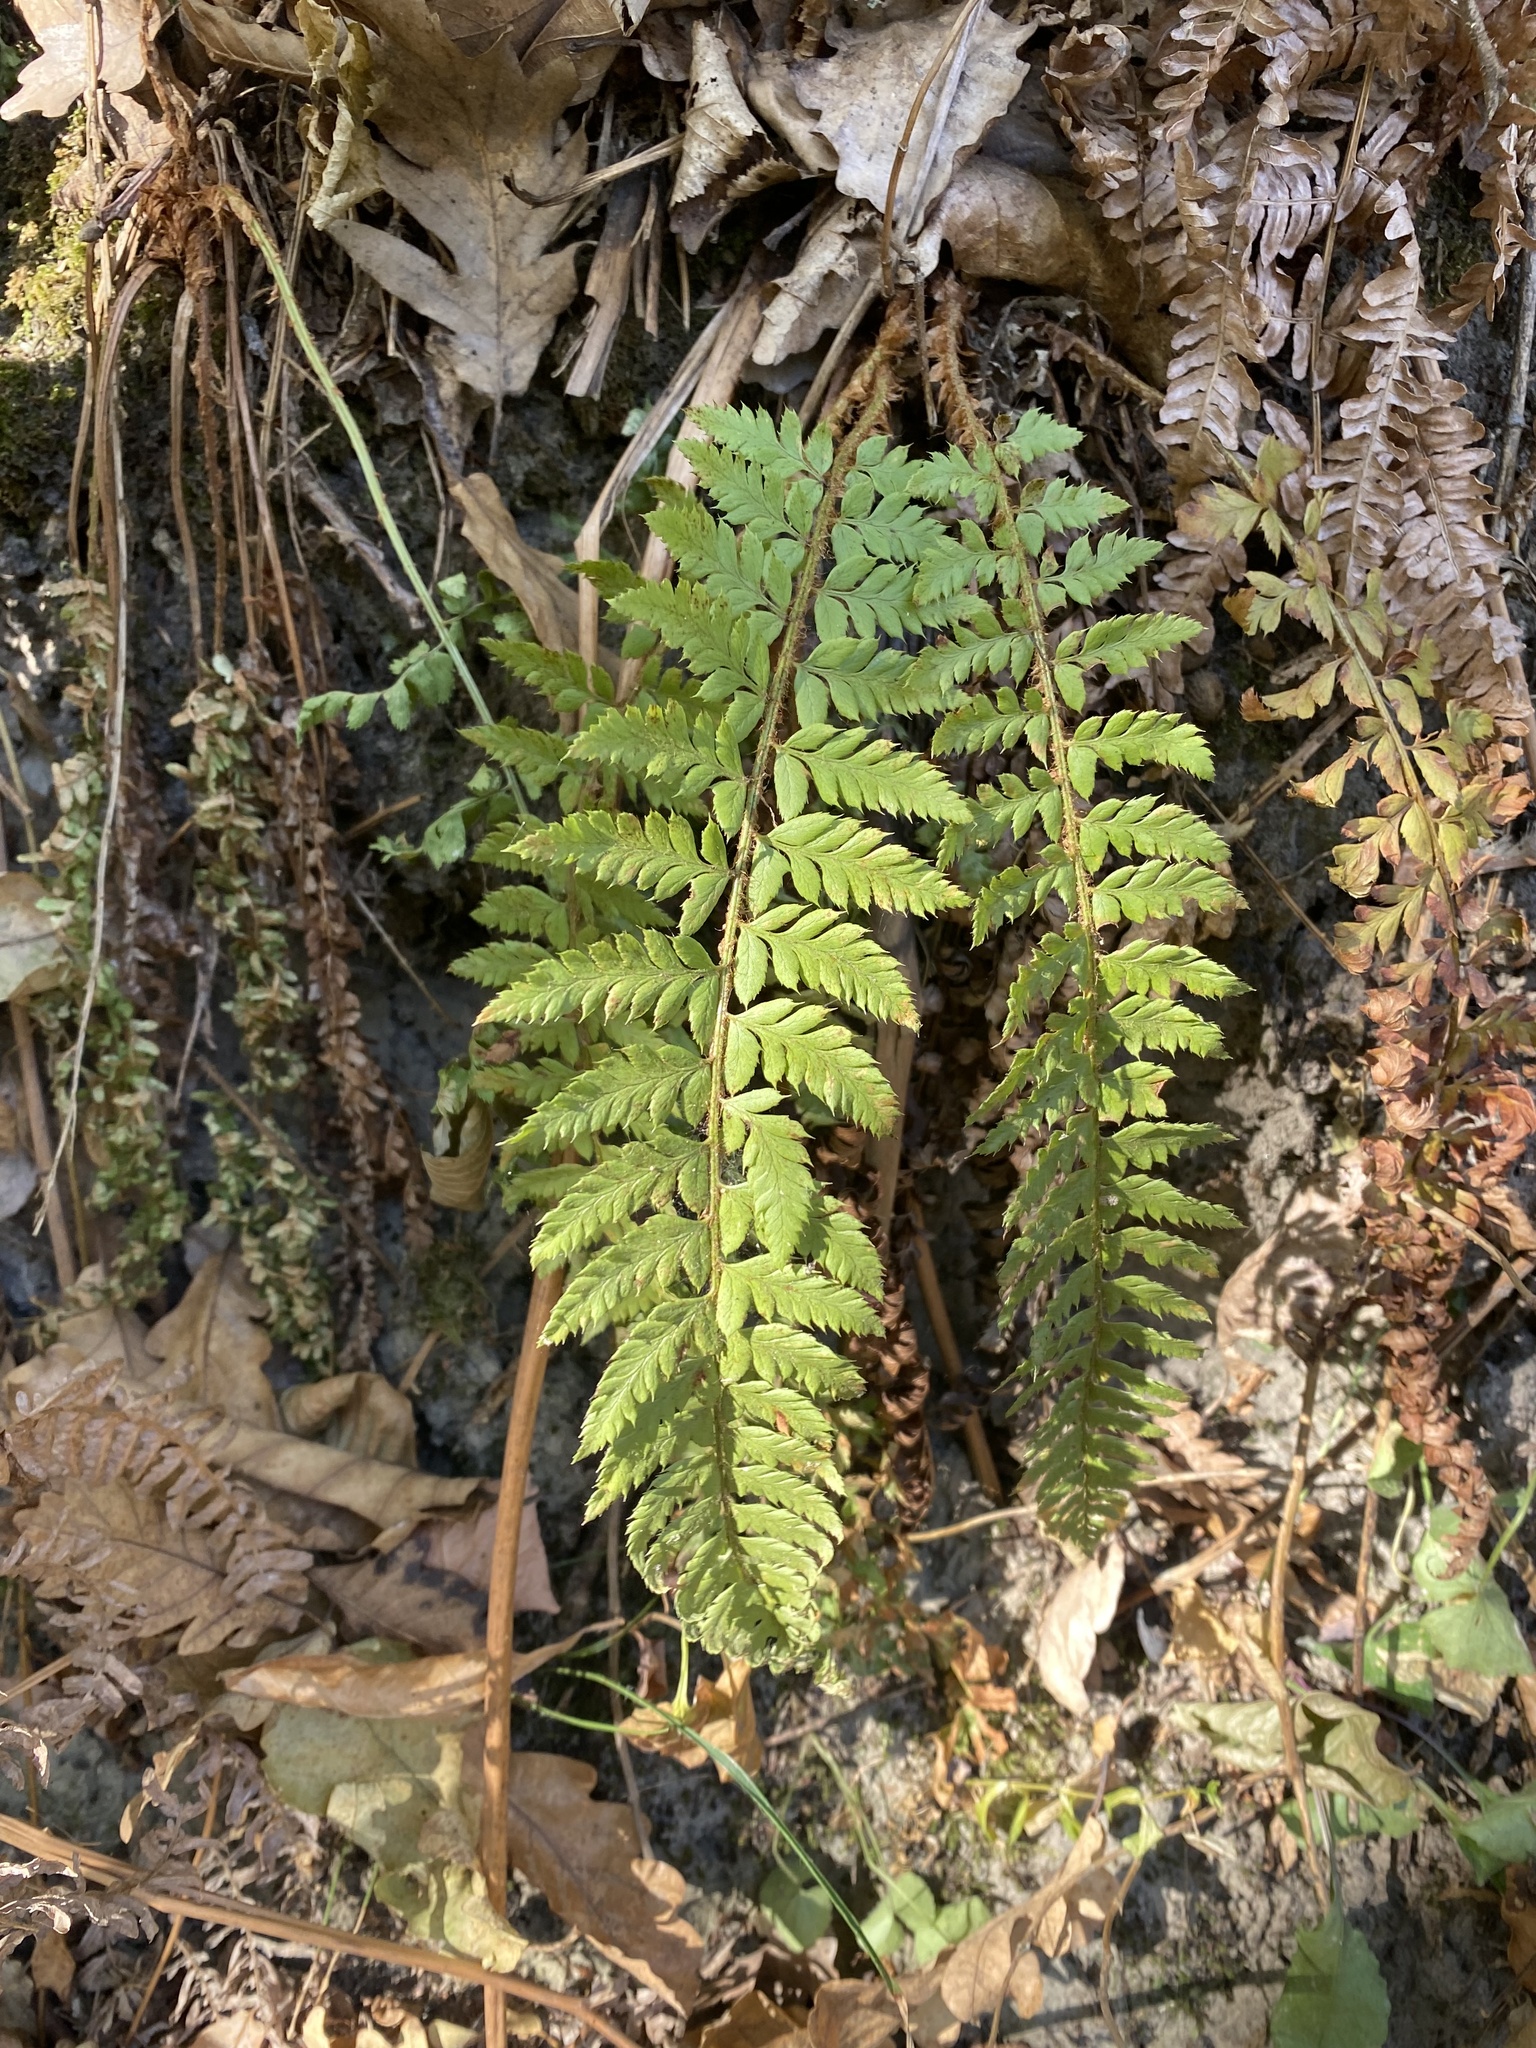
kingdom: Plantae
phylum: Tracheophyta
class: Polypodiopsida
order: Polypodiales
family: Dryopteridaceae
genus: Polystichum
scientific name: Polystichum aculeatum
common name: Hard shield-fern
